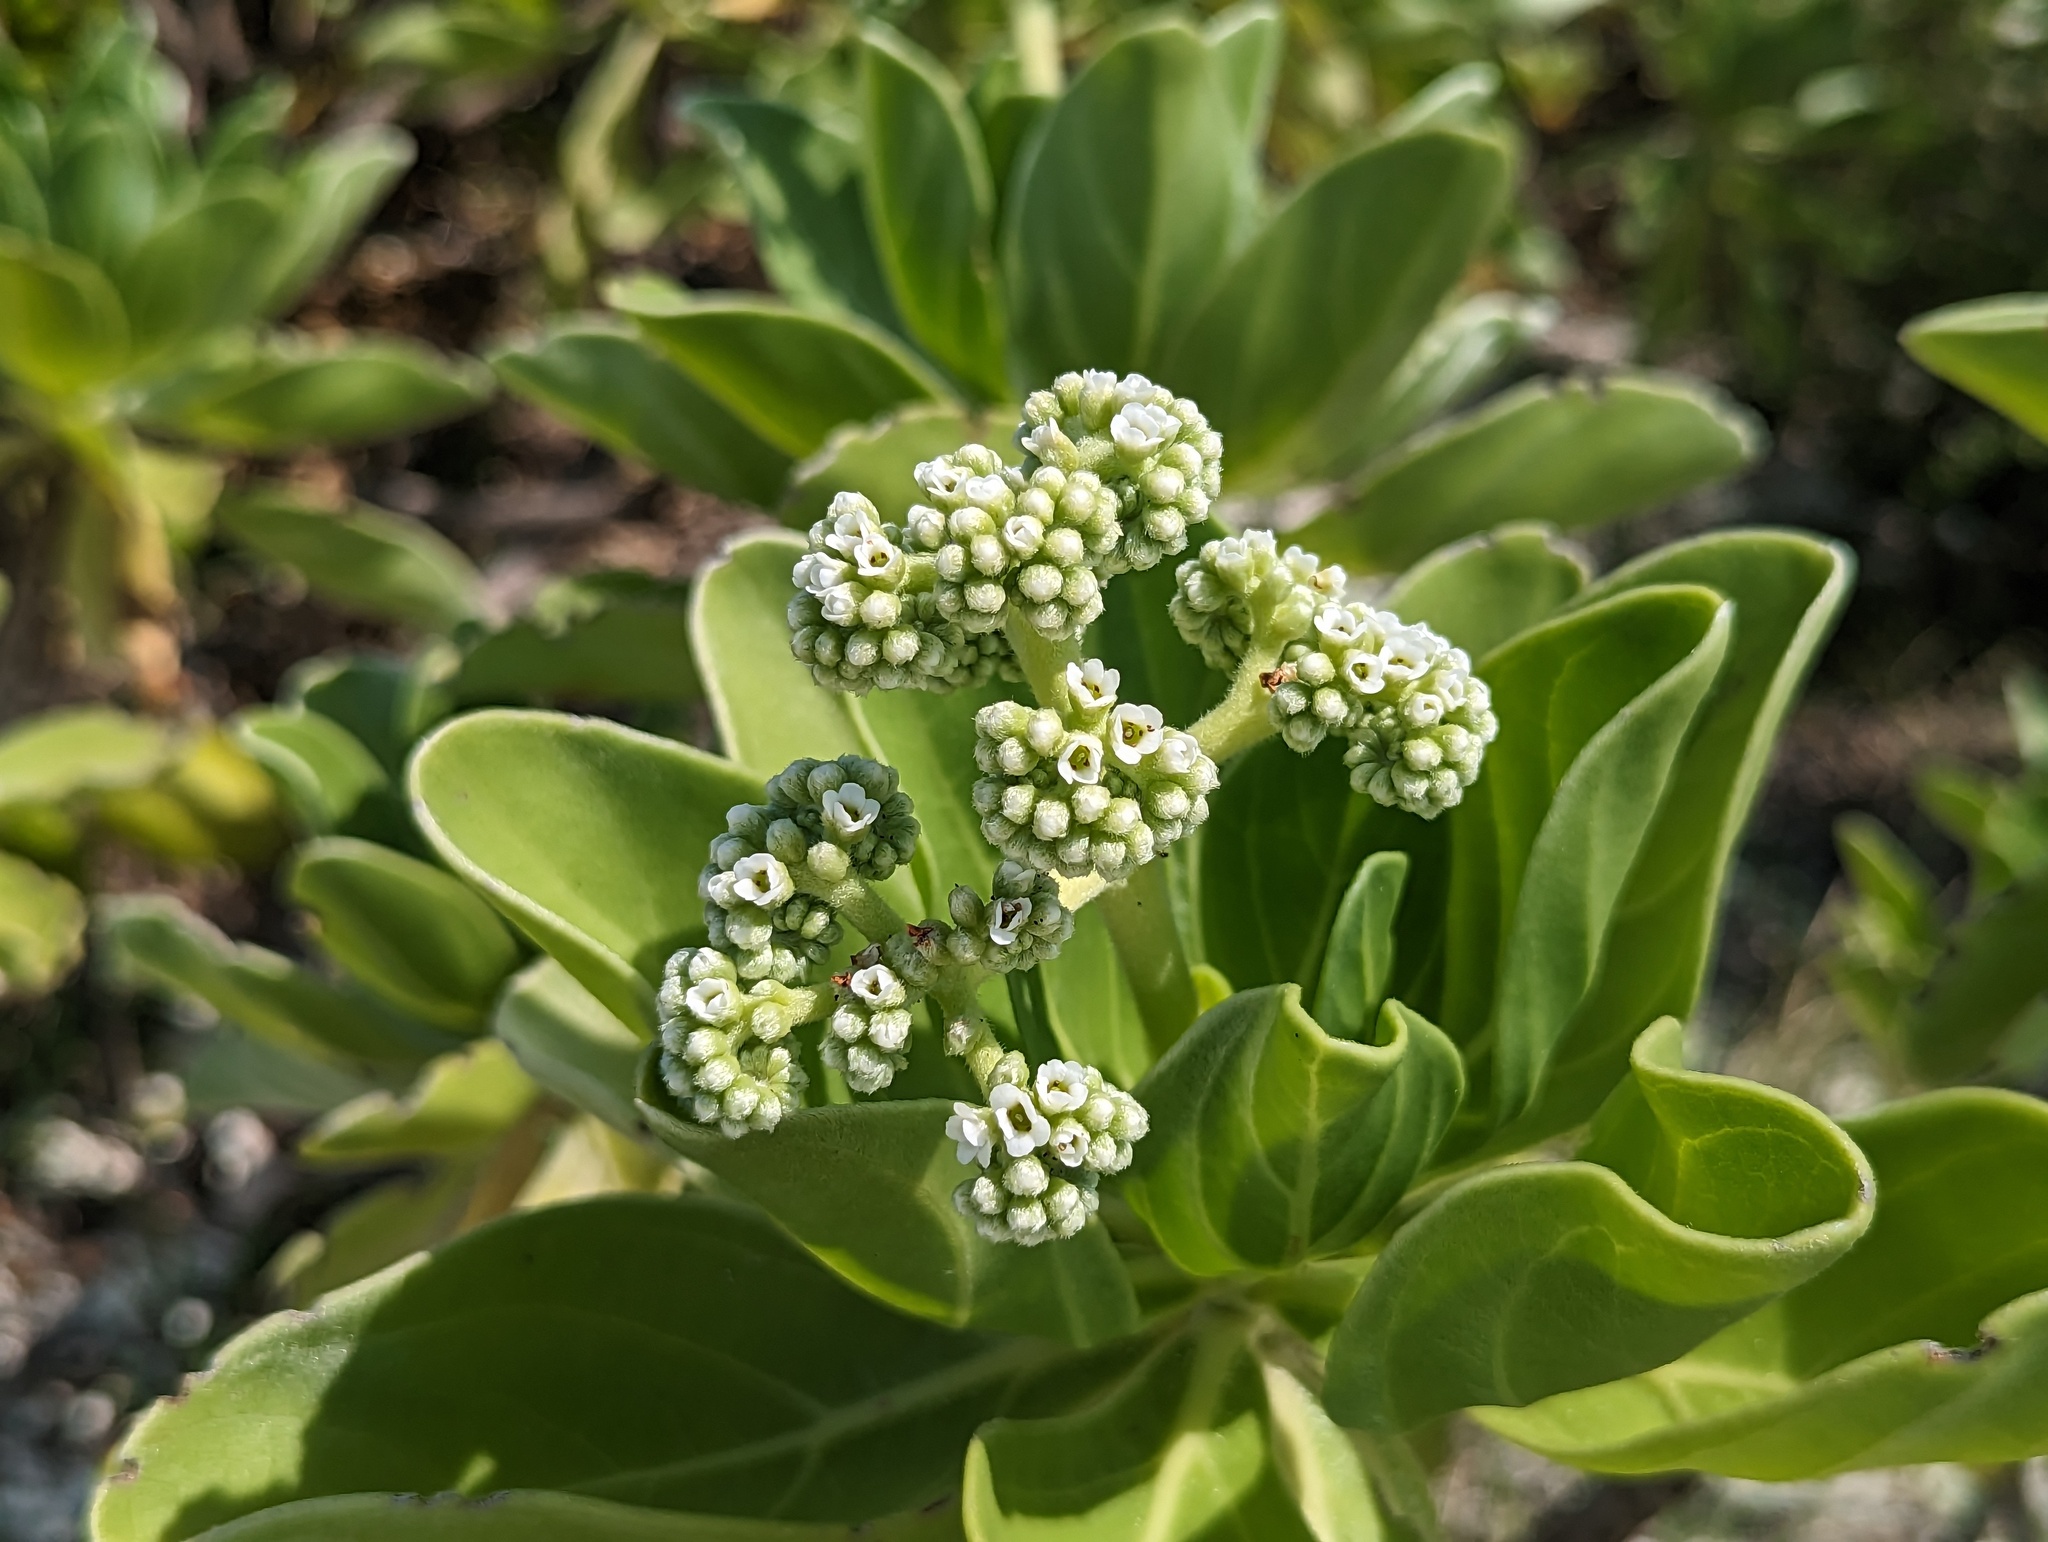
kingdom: Plantae
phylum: Tracheophyta
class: Magnoliopsida
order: Boraginales
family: Heliotropiaceae
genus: Heliotropium
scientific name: Heliotropium velutinum
